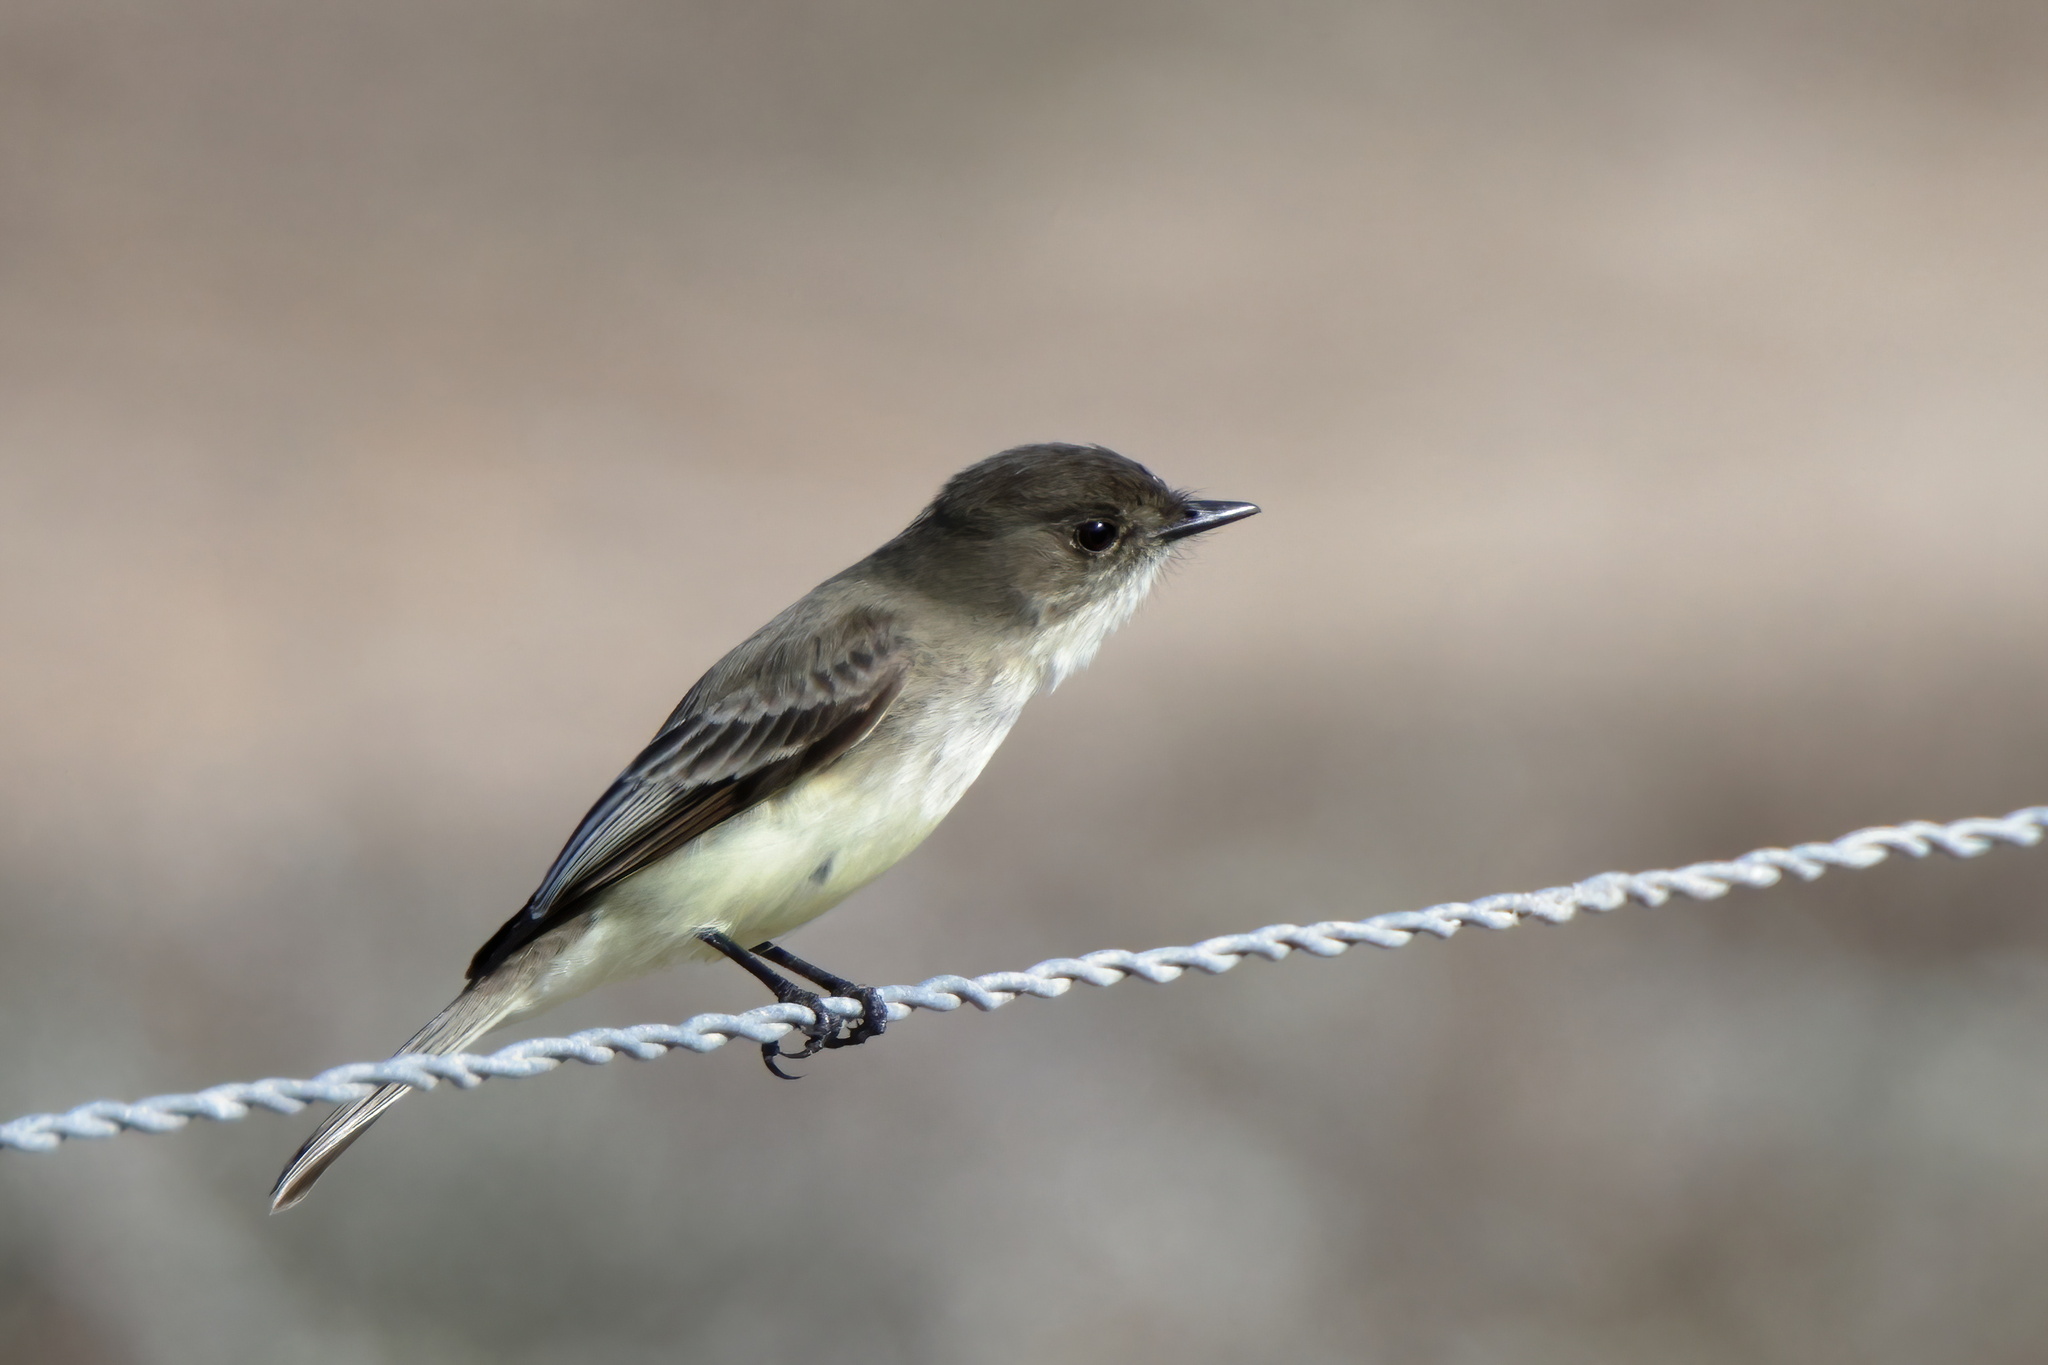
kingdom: Animalia
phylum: Chordata
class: Aves
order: Passeriformes
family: Tyrannidae
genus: Sayornis
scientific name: Sayornis phoebe
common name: Eastern phoebe
